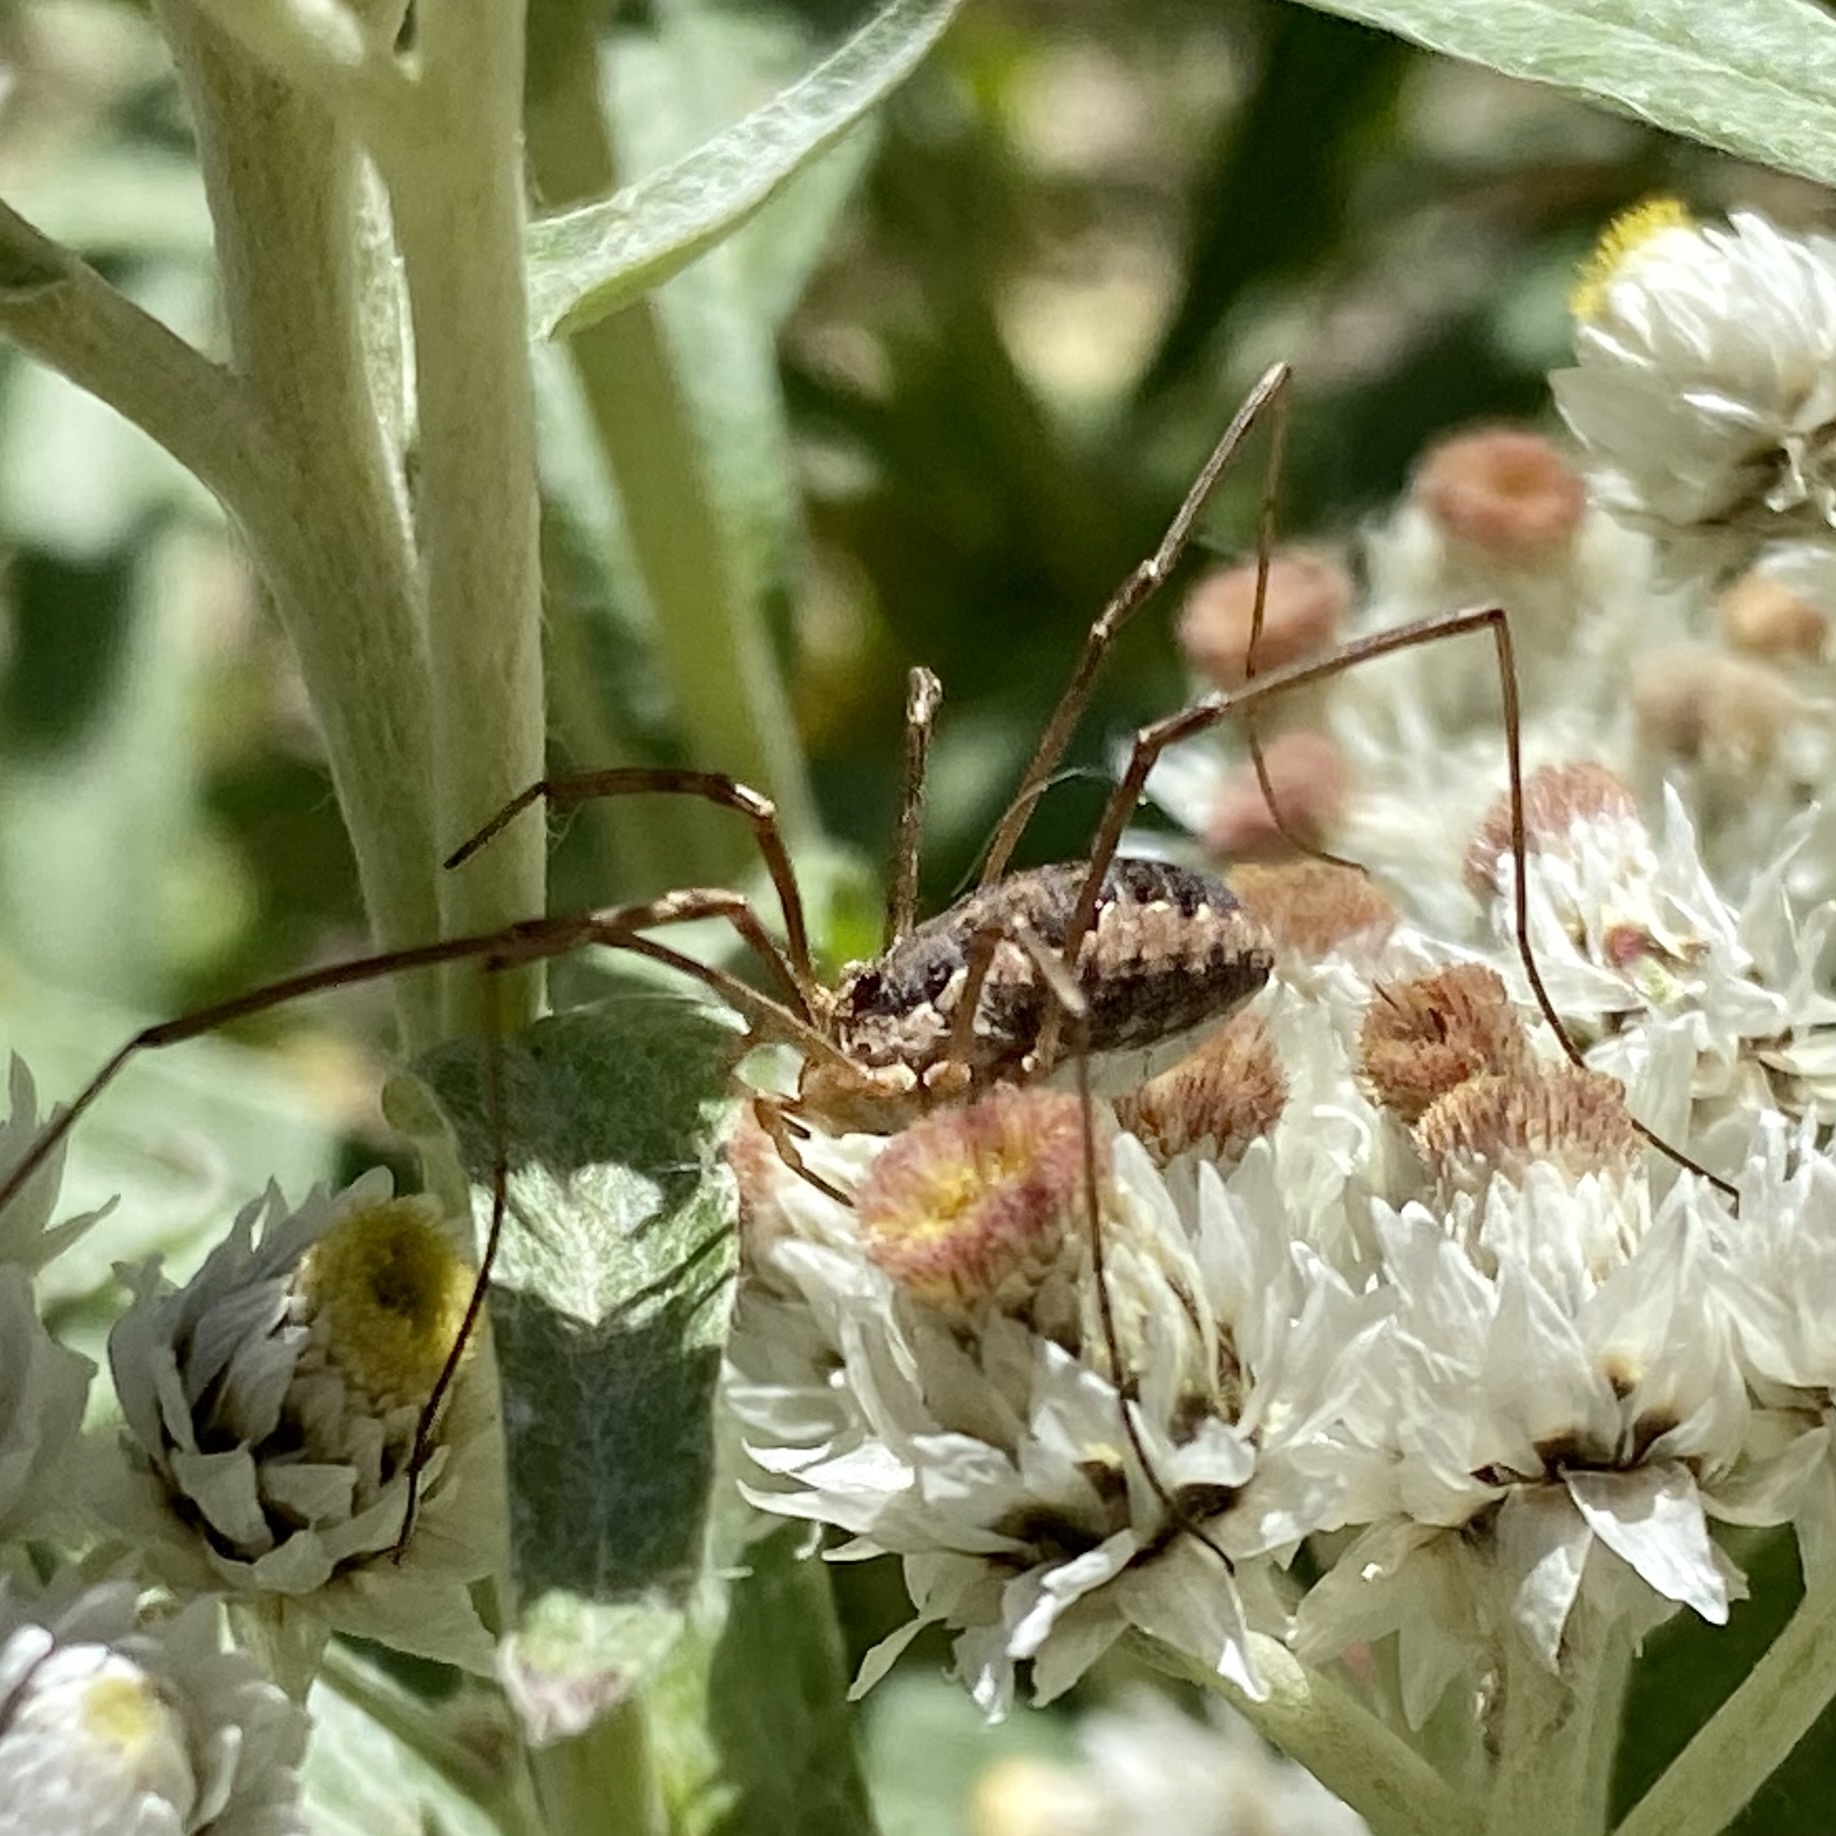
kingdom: Animalia
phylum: Arthropoda
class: Arachnida
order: Opiliones
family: Phalangiidae
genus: Phalangium
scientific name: Phalangium opilio
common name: Daddy longleg
